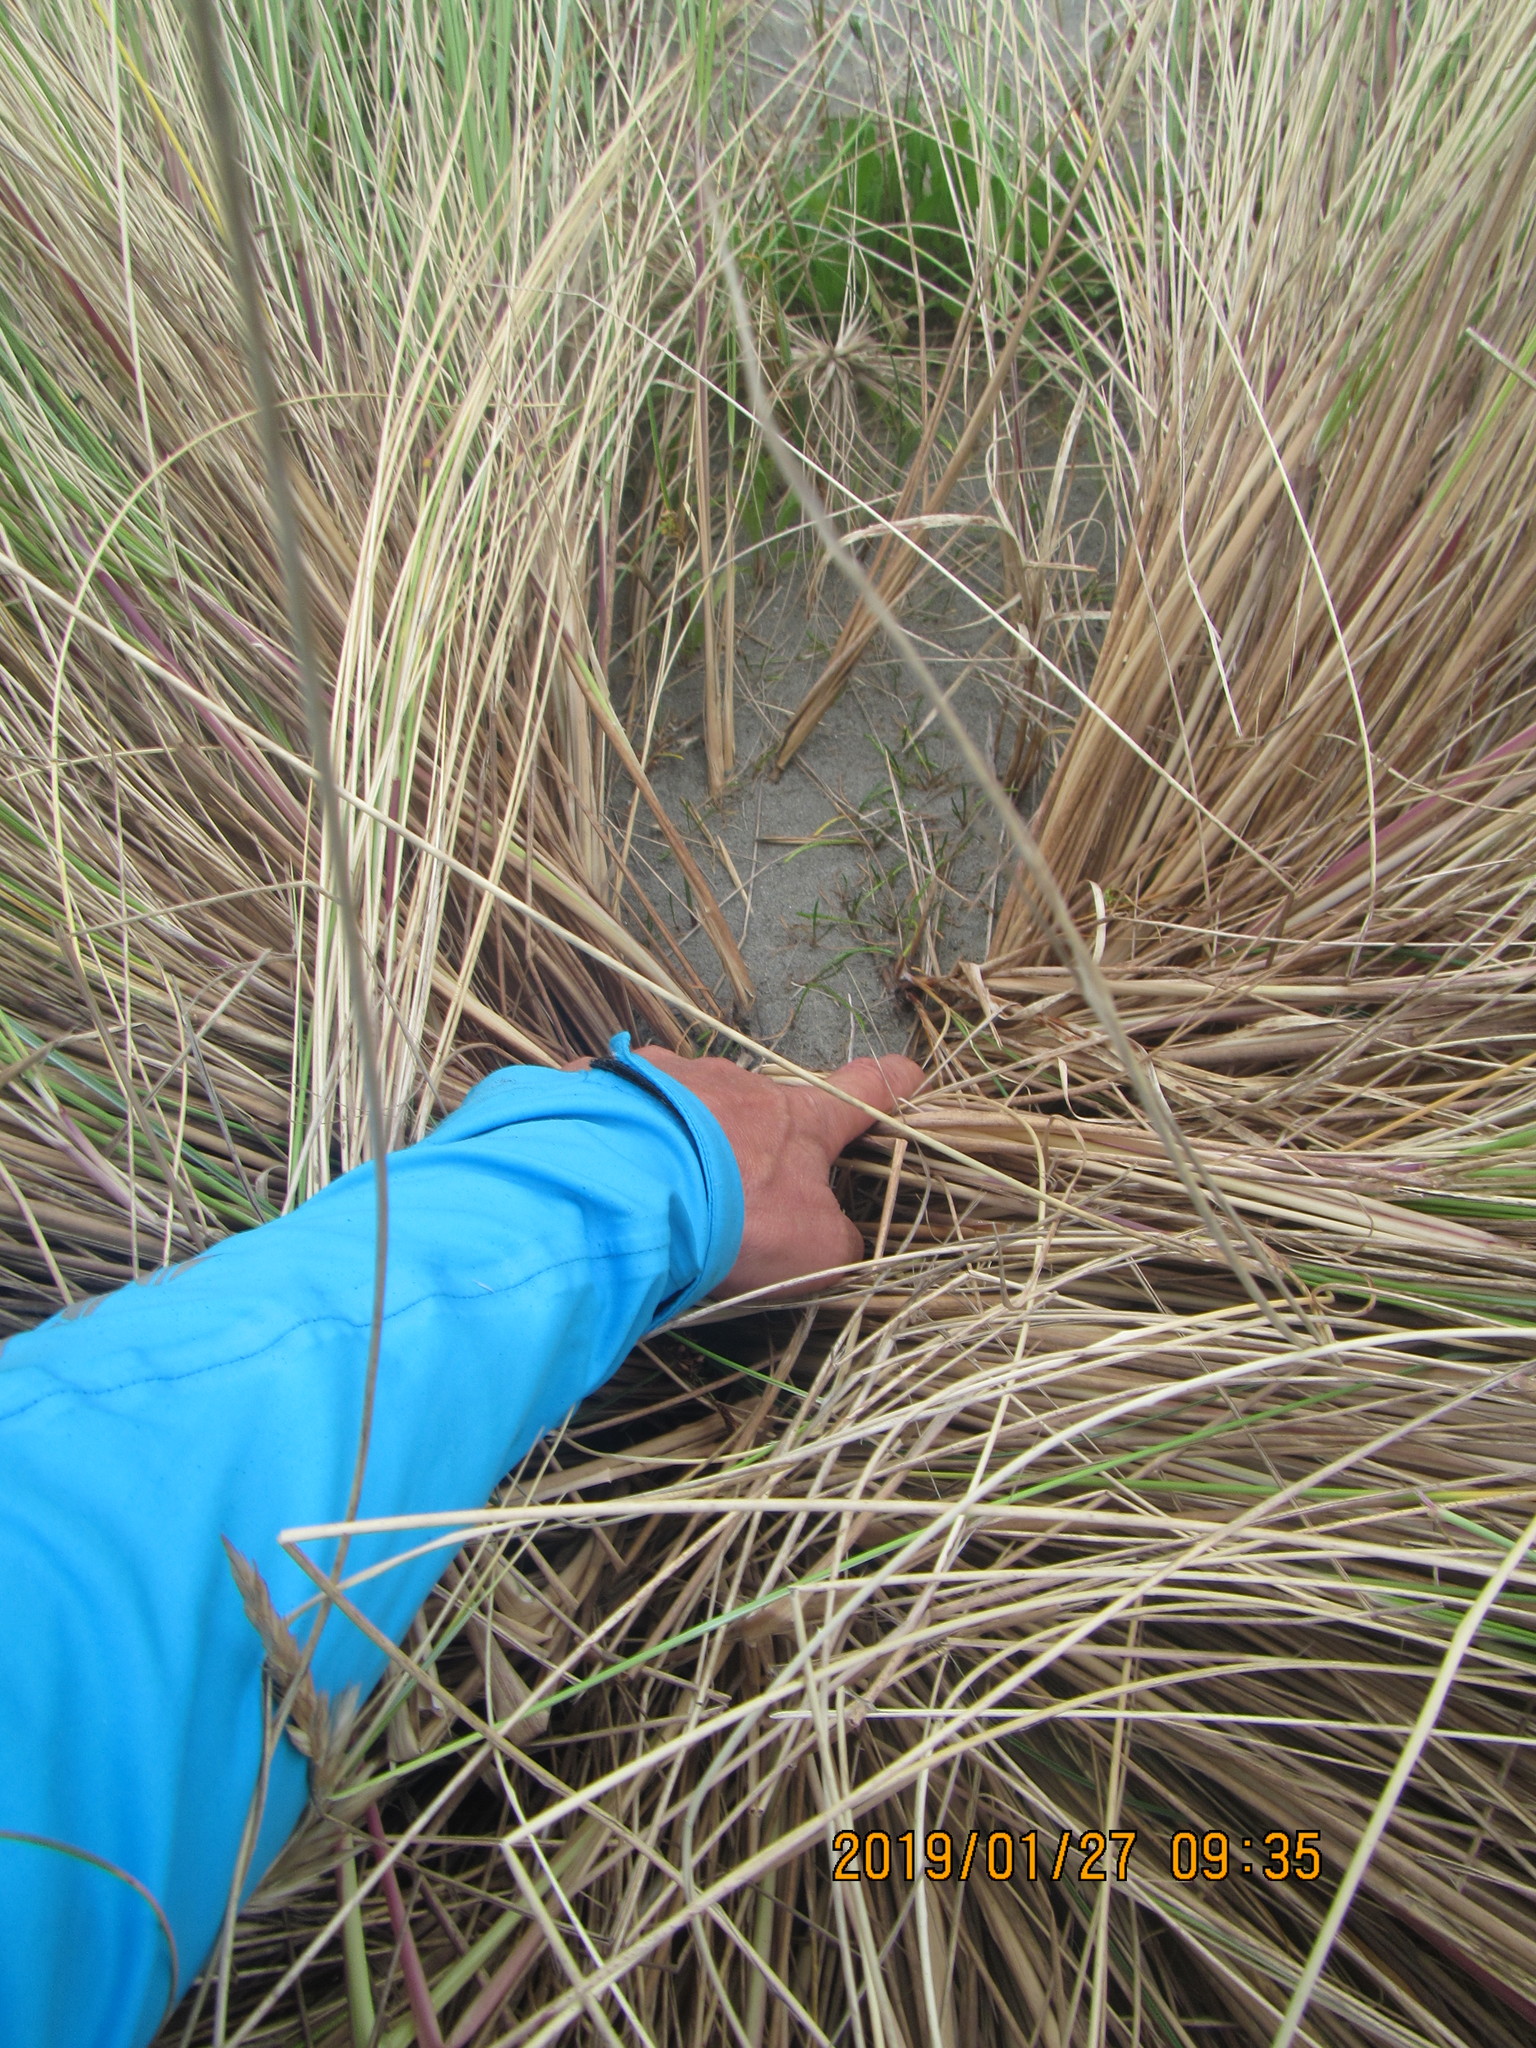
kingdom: Plantae
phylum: Tracheophyta
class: Magnoliopsida
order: Apiales
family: Apiaceae
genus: Lilaeopsis
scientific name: Lilaeopsis novae-zelandiae
